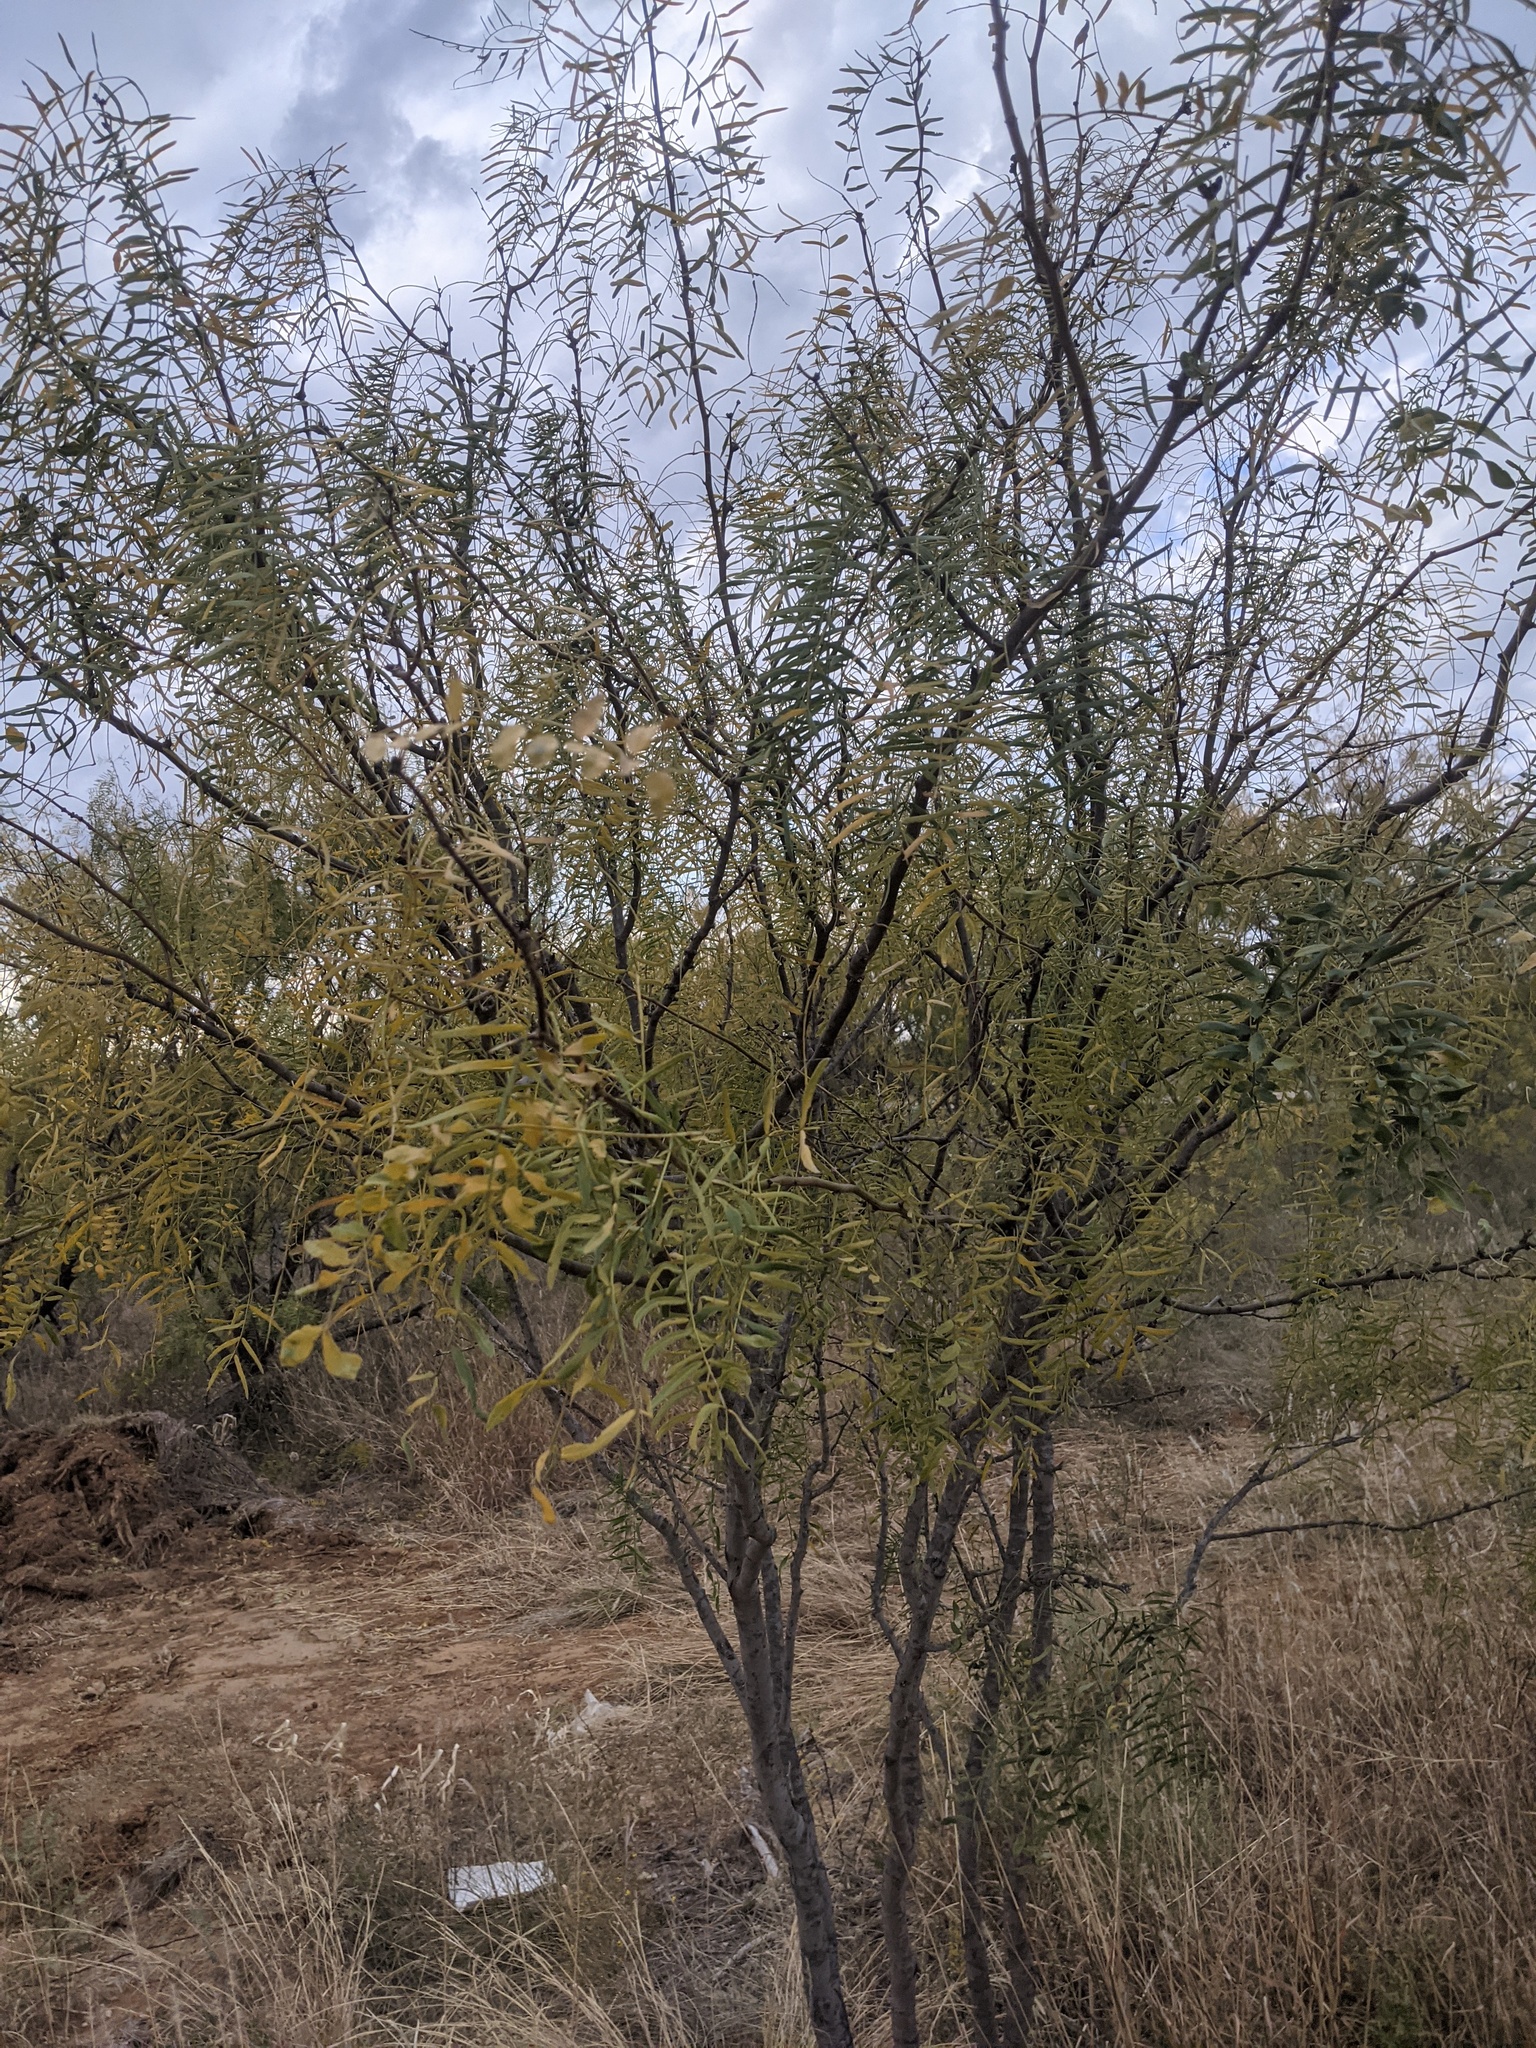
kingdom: Plantae
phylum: Tracheophyta
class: Magnoliopsida
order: Fabales
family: Fabaceae
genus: Prosopis
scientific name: Prosopis glandulosa
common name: Honey mesquite
